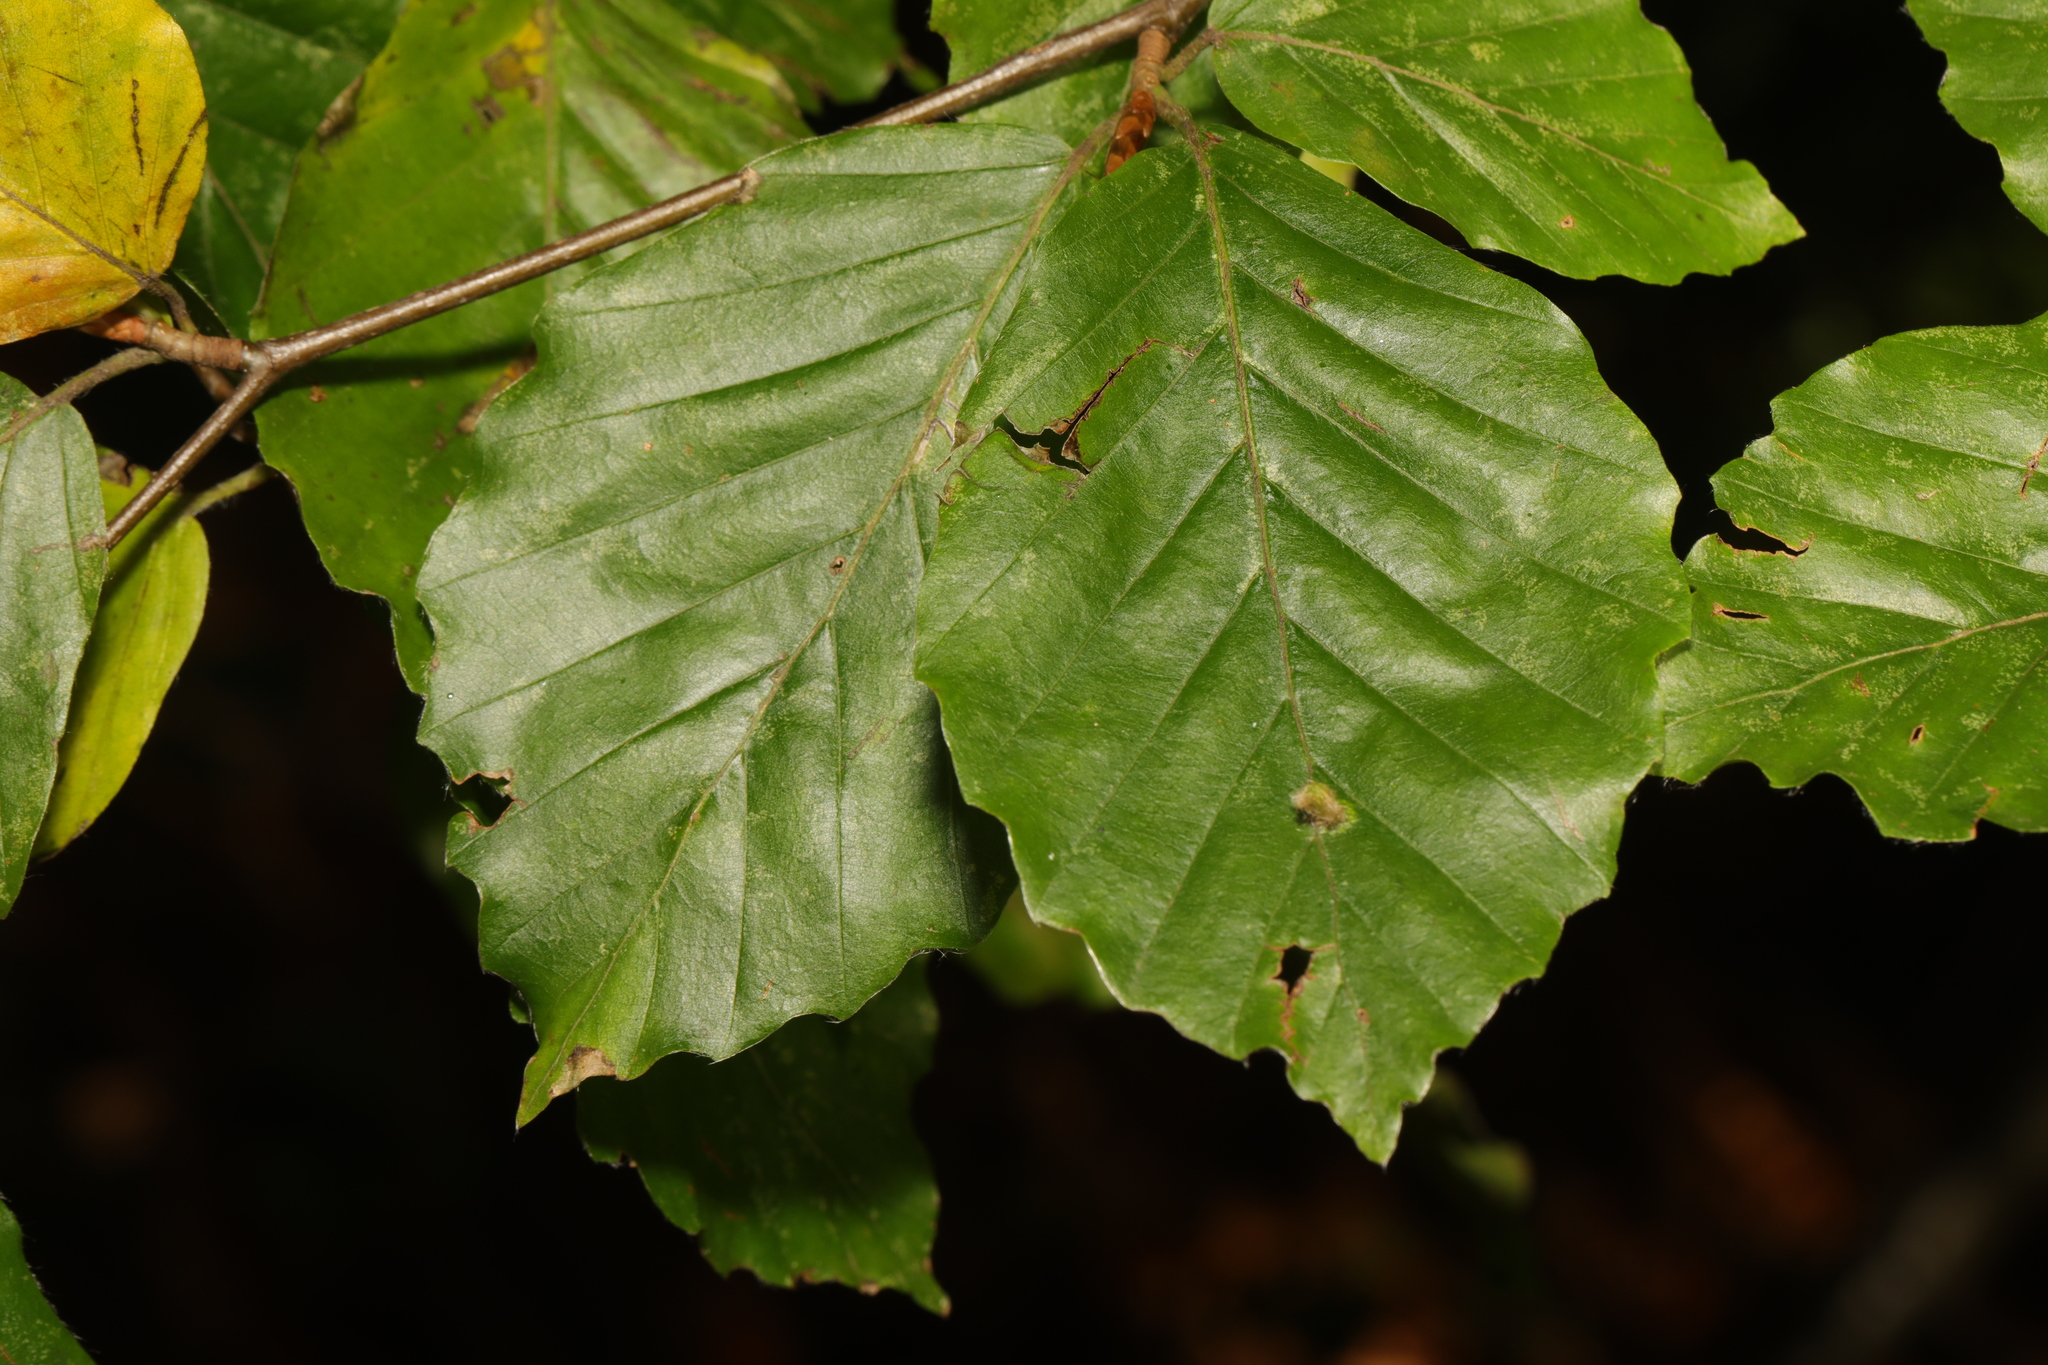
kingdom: Plantae
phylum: Tracheophyta
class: Magnoliopsida
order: Fagales
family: Fagaceae
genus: Fagus
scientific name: Fagus sylvatica
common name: Beech
